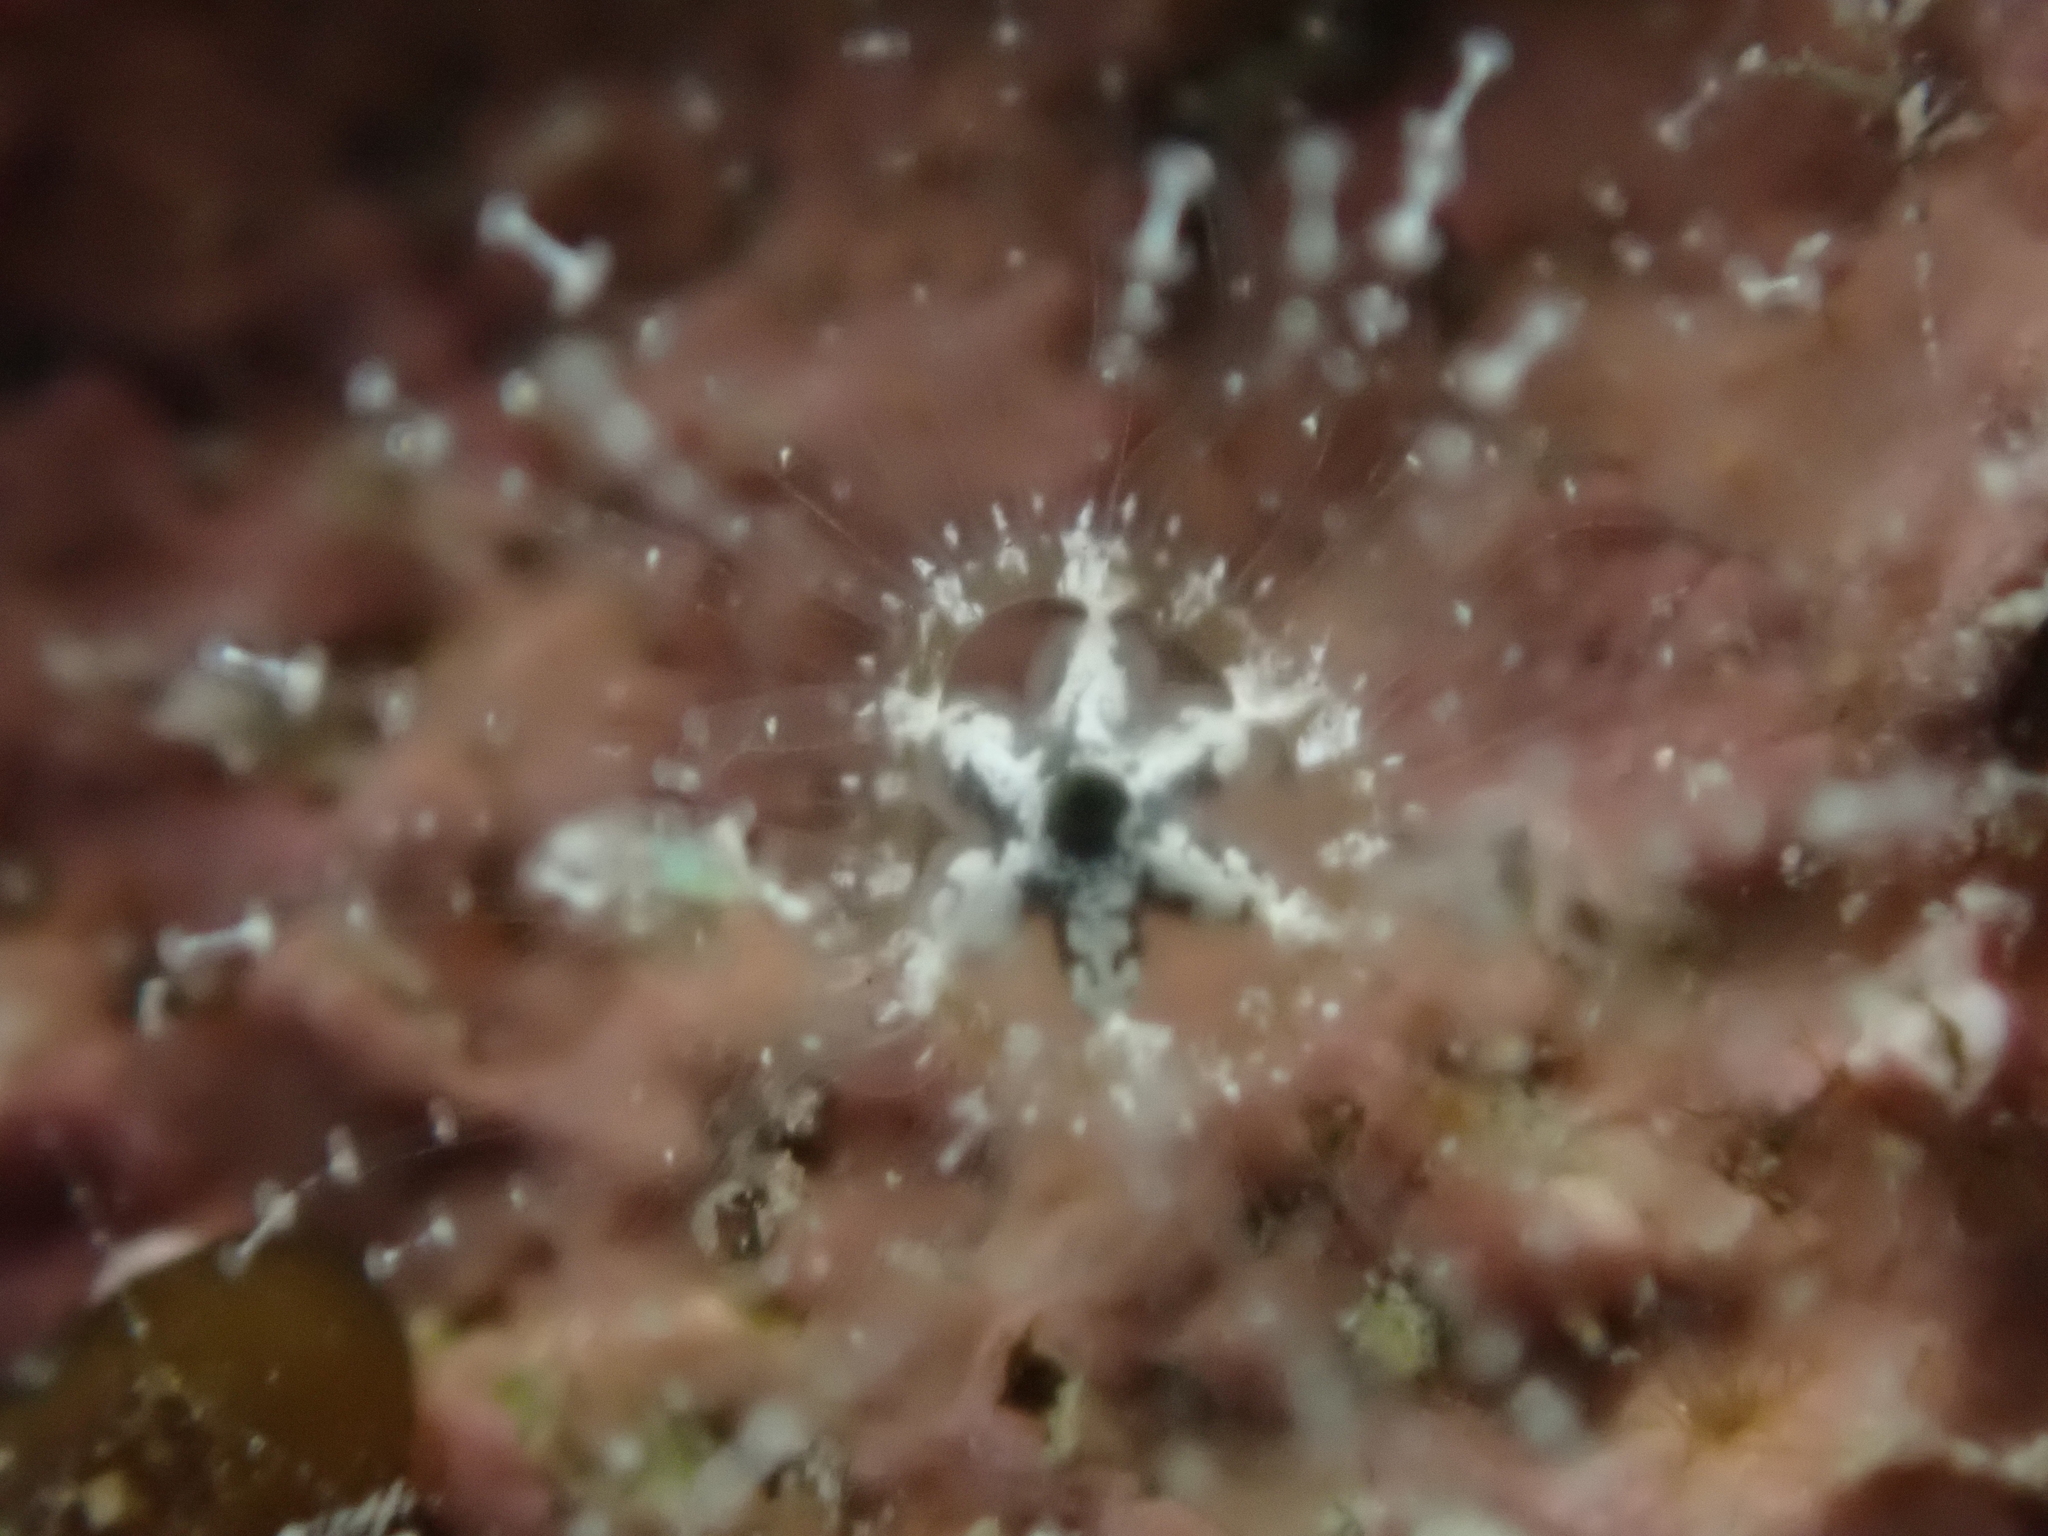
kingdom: Animalia
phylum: Cnidaria
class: Hydrozoa
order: Anthoathecata
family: Cladonematidae
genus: Staurocladia
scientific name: Staurocladia wellingtoni
